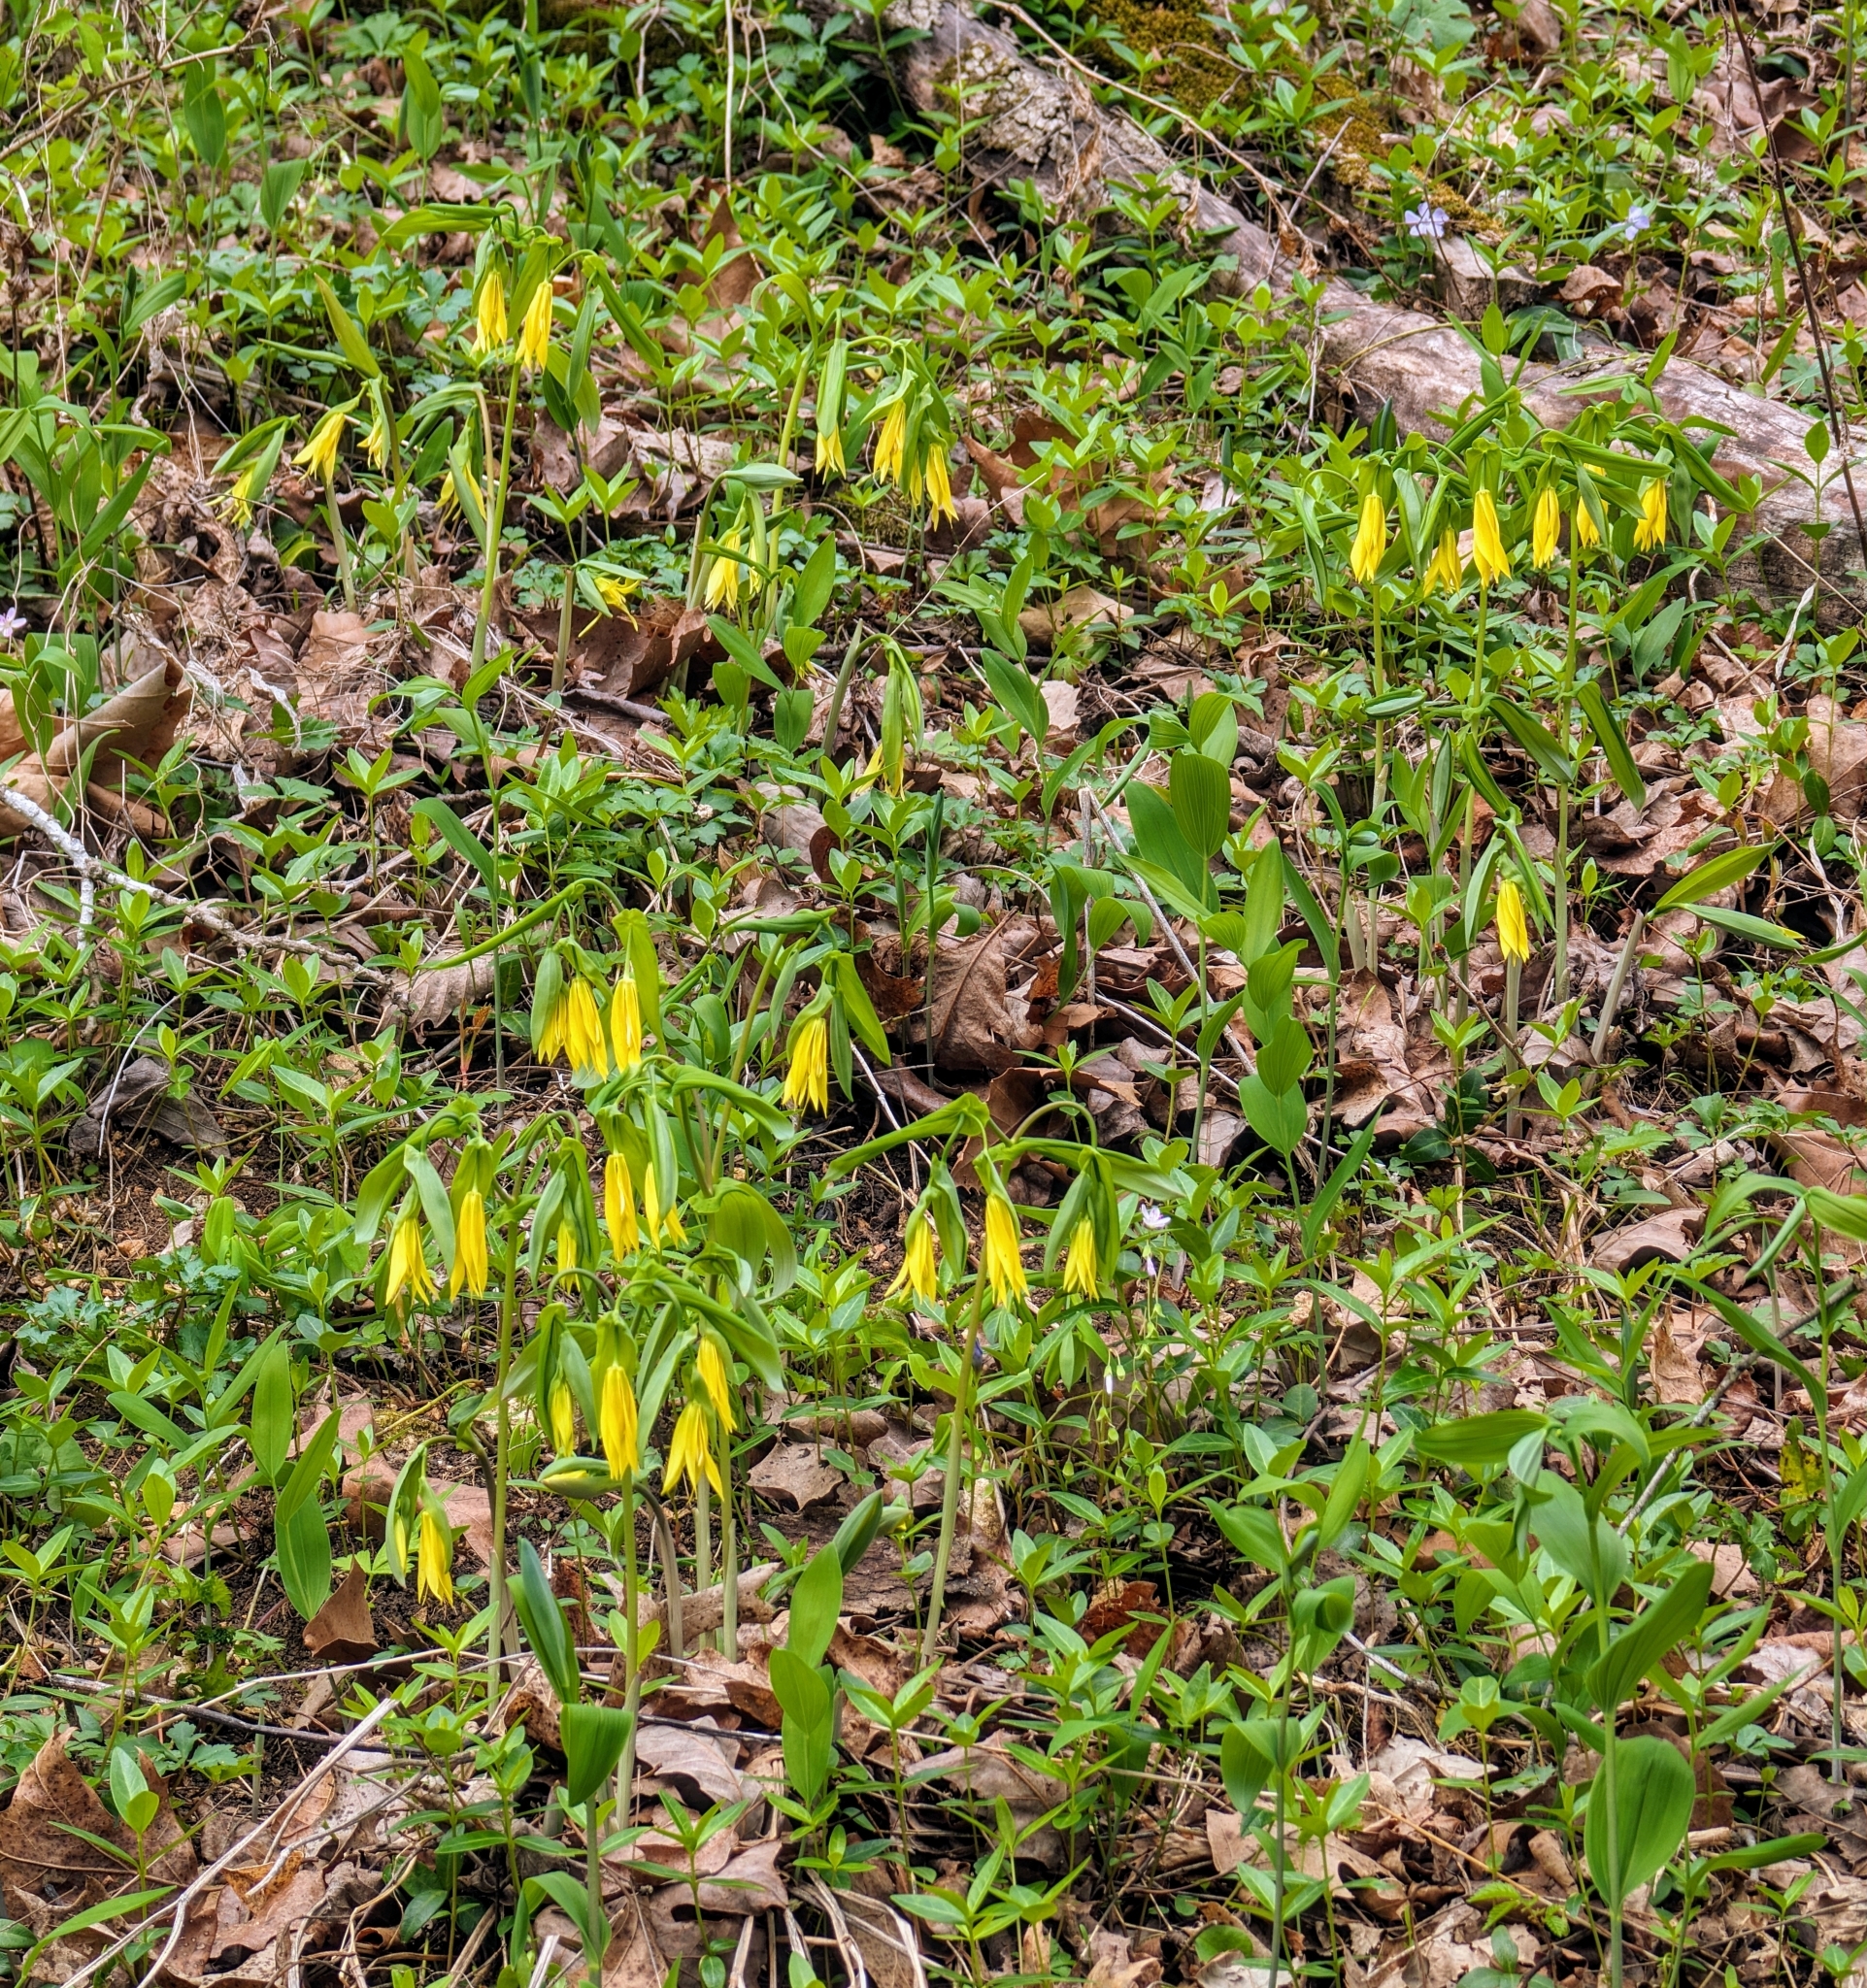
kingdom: Plantae
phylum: Tracheophyta
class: Liliopsida
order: Liliales
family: Colchicaceae
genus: Uvularia
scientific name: Uvularia grandiflora
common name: Bellwort
